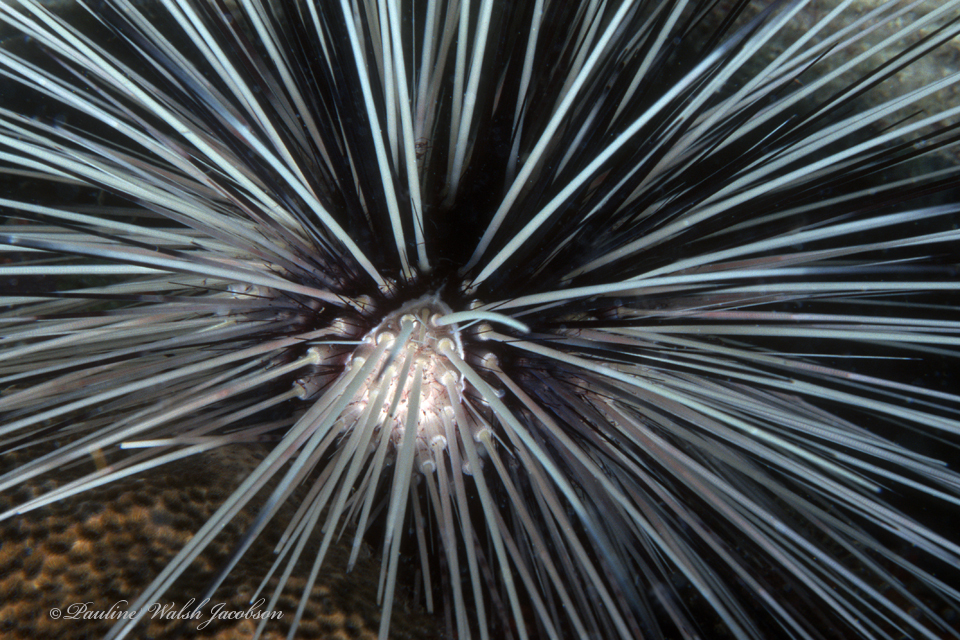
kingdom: Animalia
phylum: Echinodermata
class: Echinoidea
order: Diadematoida
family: Diadematidae
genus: Diadema
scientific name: Diadema antillarum
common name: Spiny urchin
